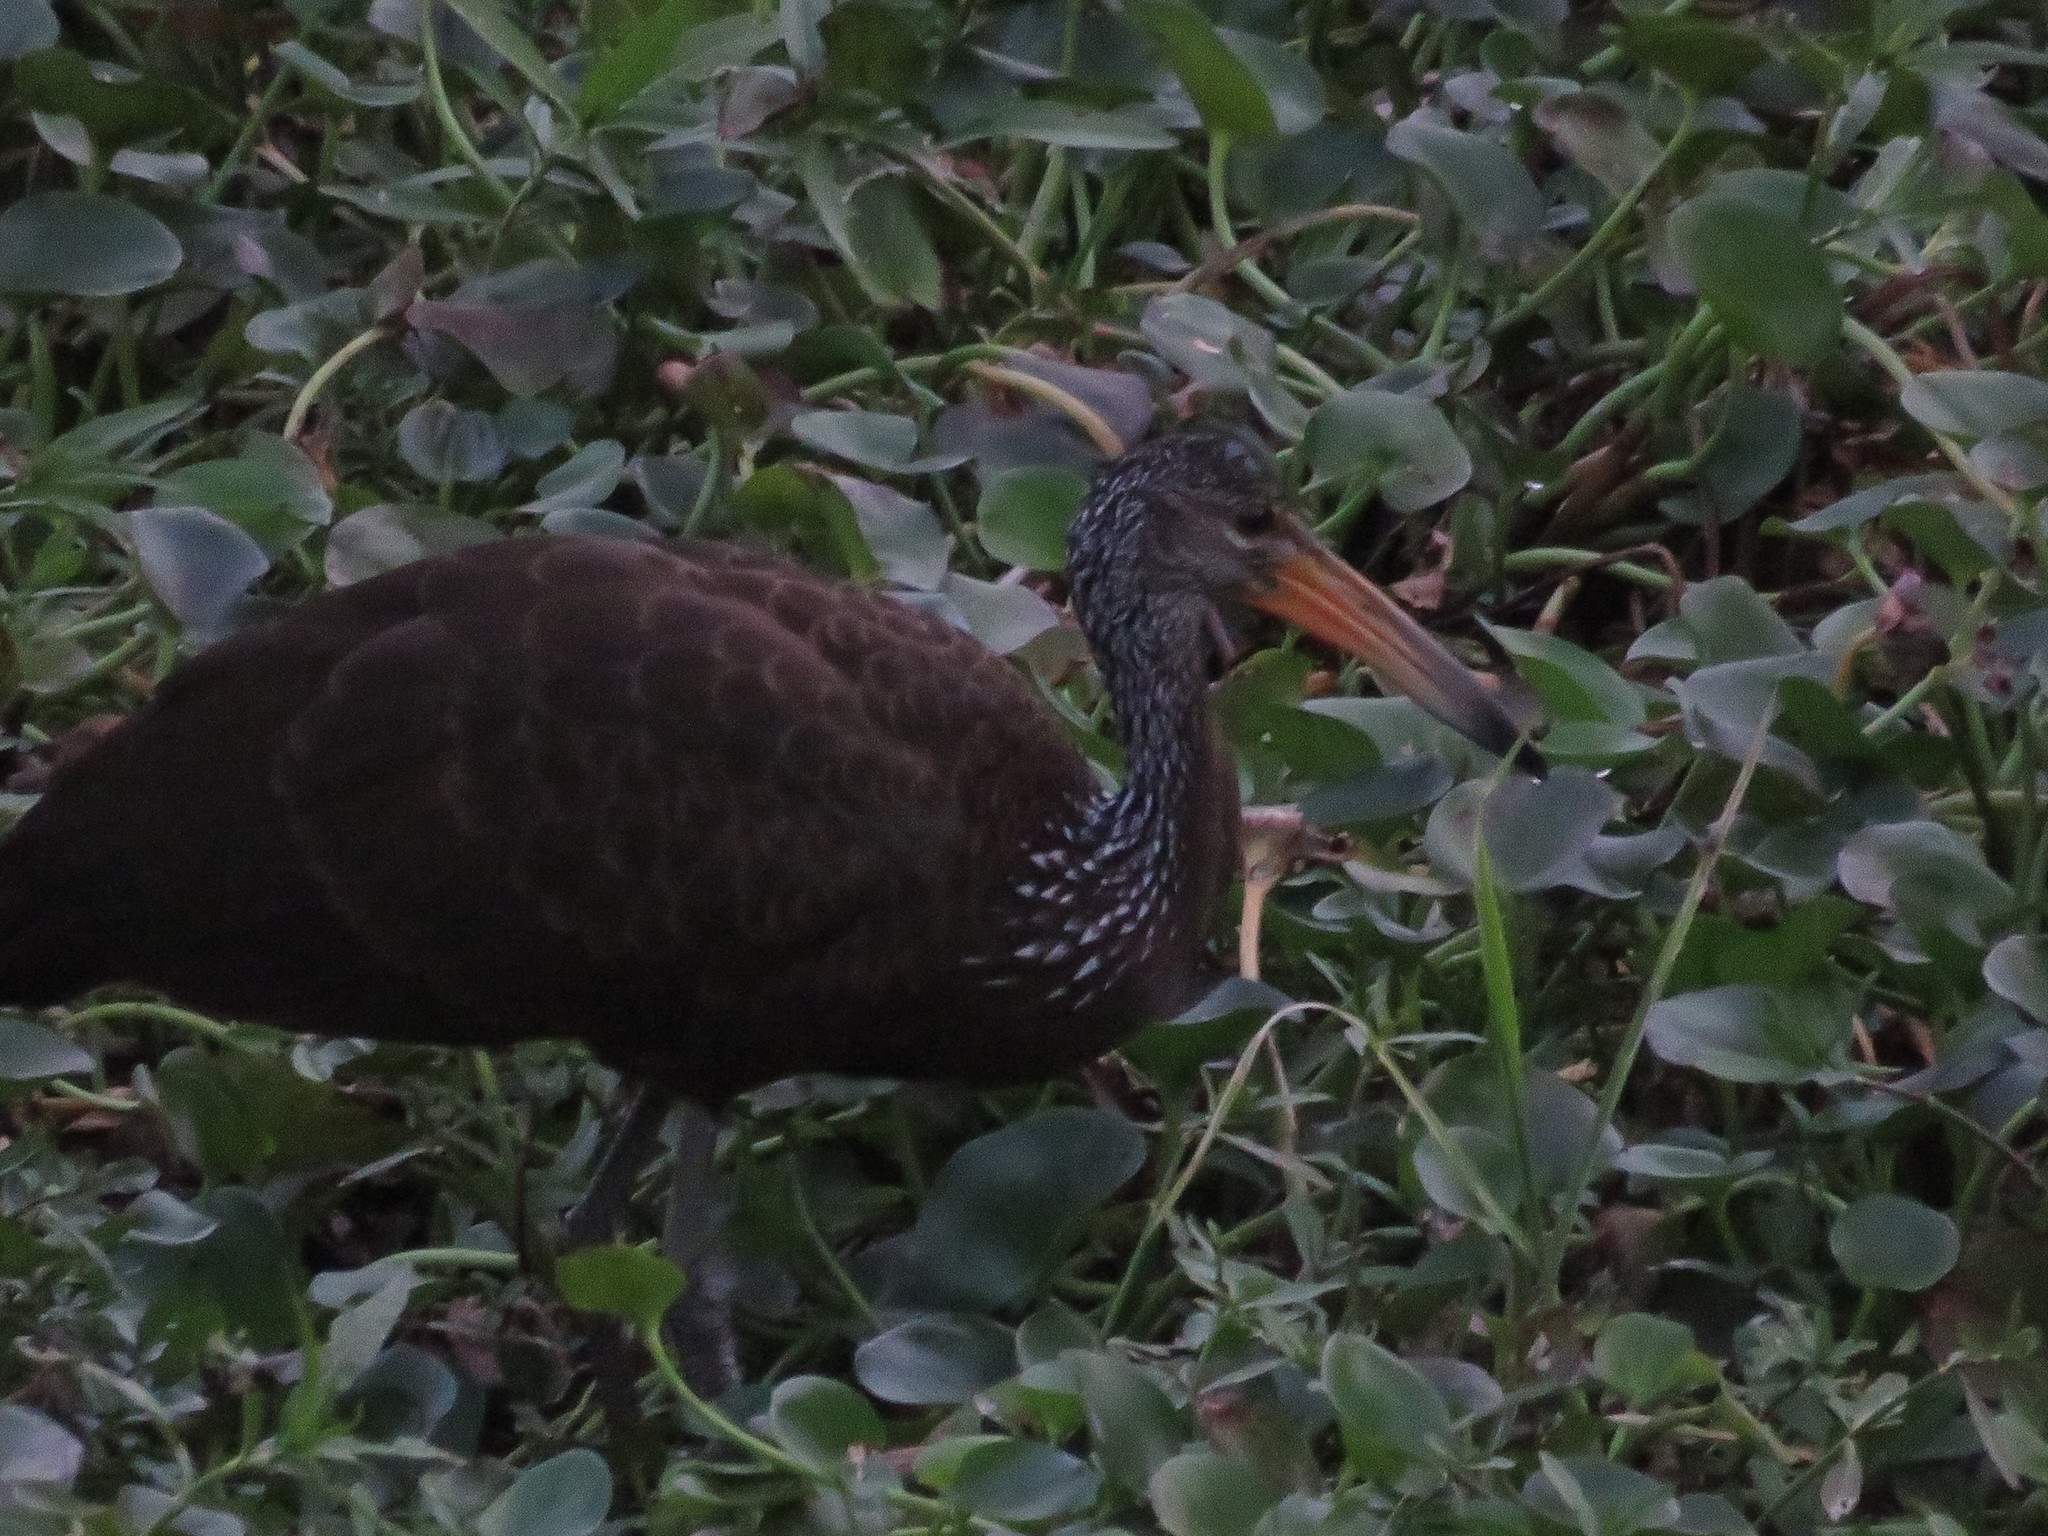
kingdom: Animalia
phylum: Chordata
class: Aves
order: Gruiformes
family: Aramidae
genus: Aramus
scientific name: Aramus guarauna
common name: Limpkin
